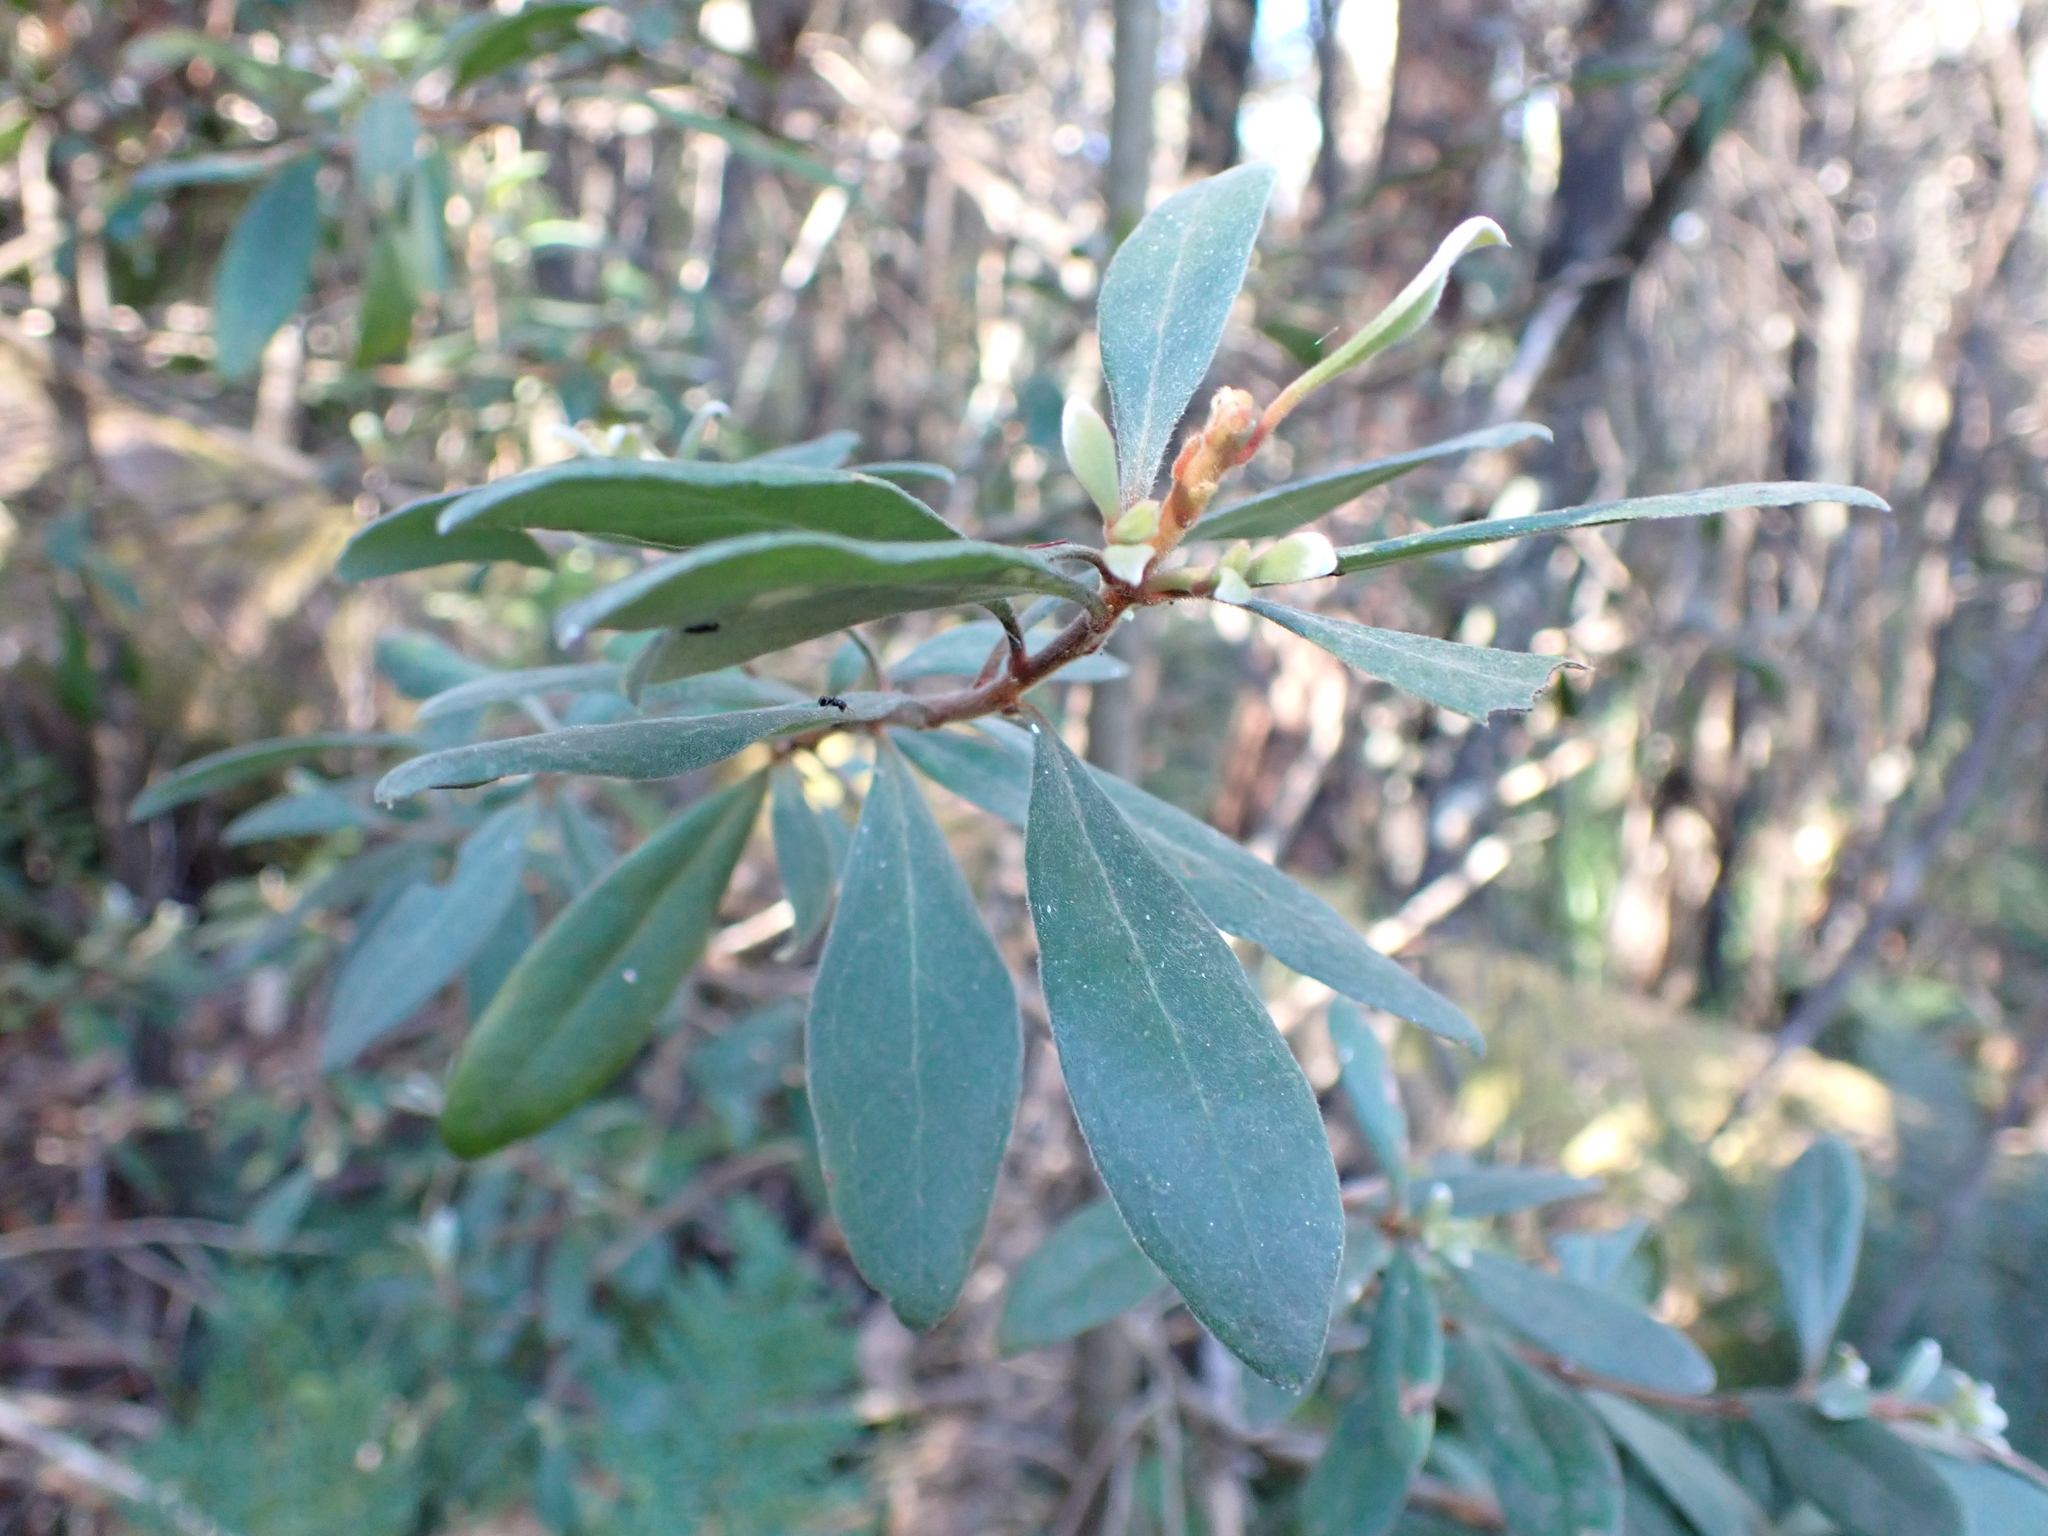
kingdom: Plantae
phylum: Tracheophyta
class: Magnoliopsida
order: Proteales
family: Proteaceae
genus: Persoonia
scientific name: Persoonia subvelutina
